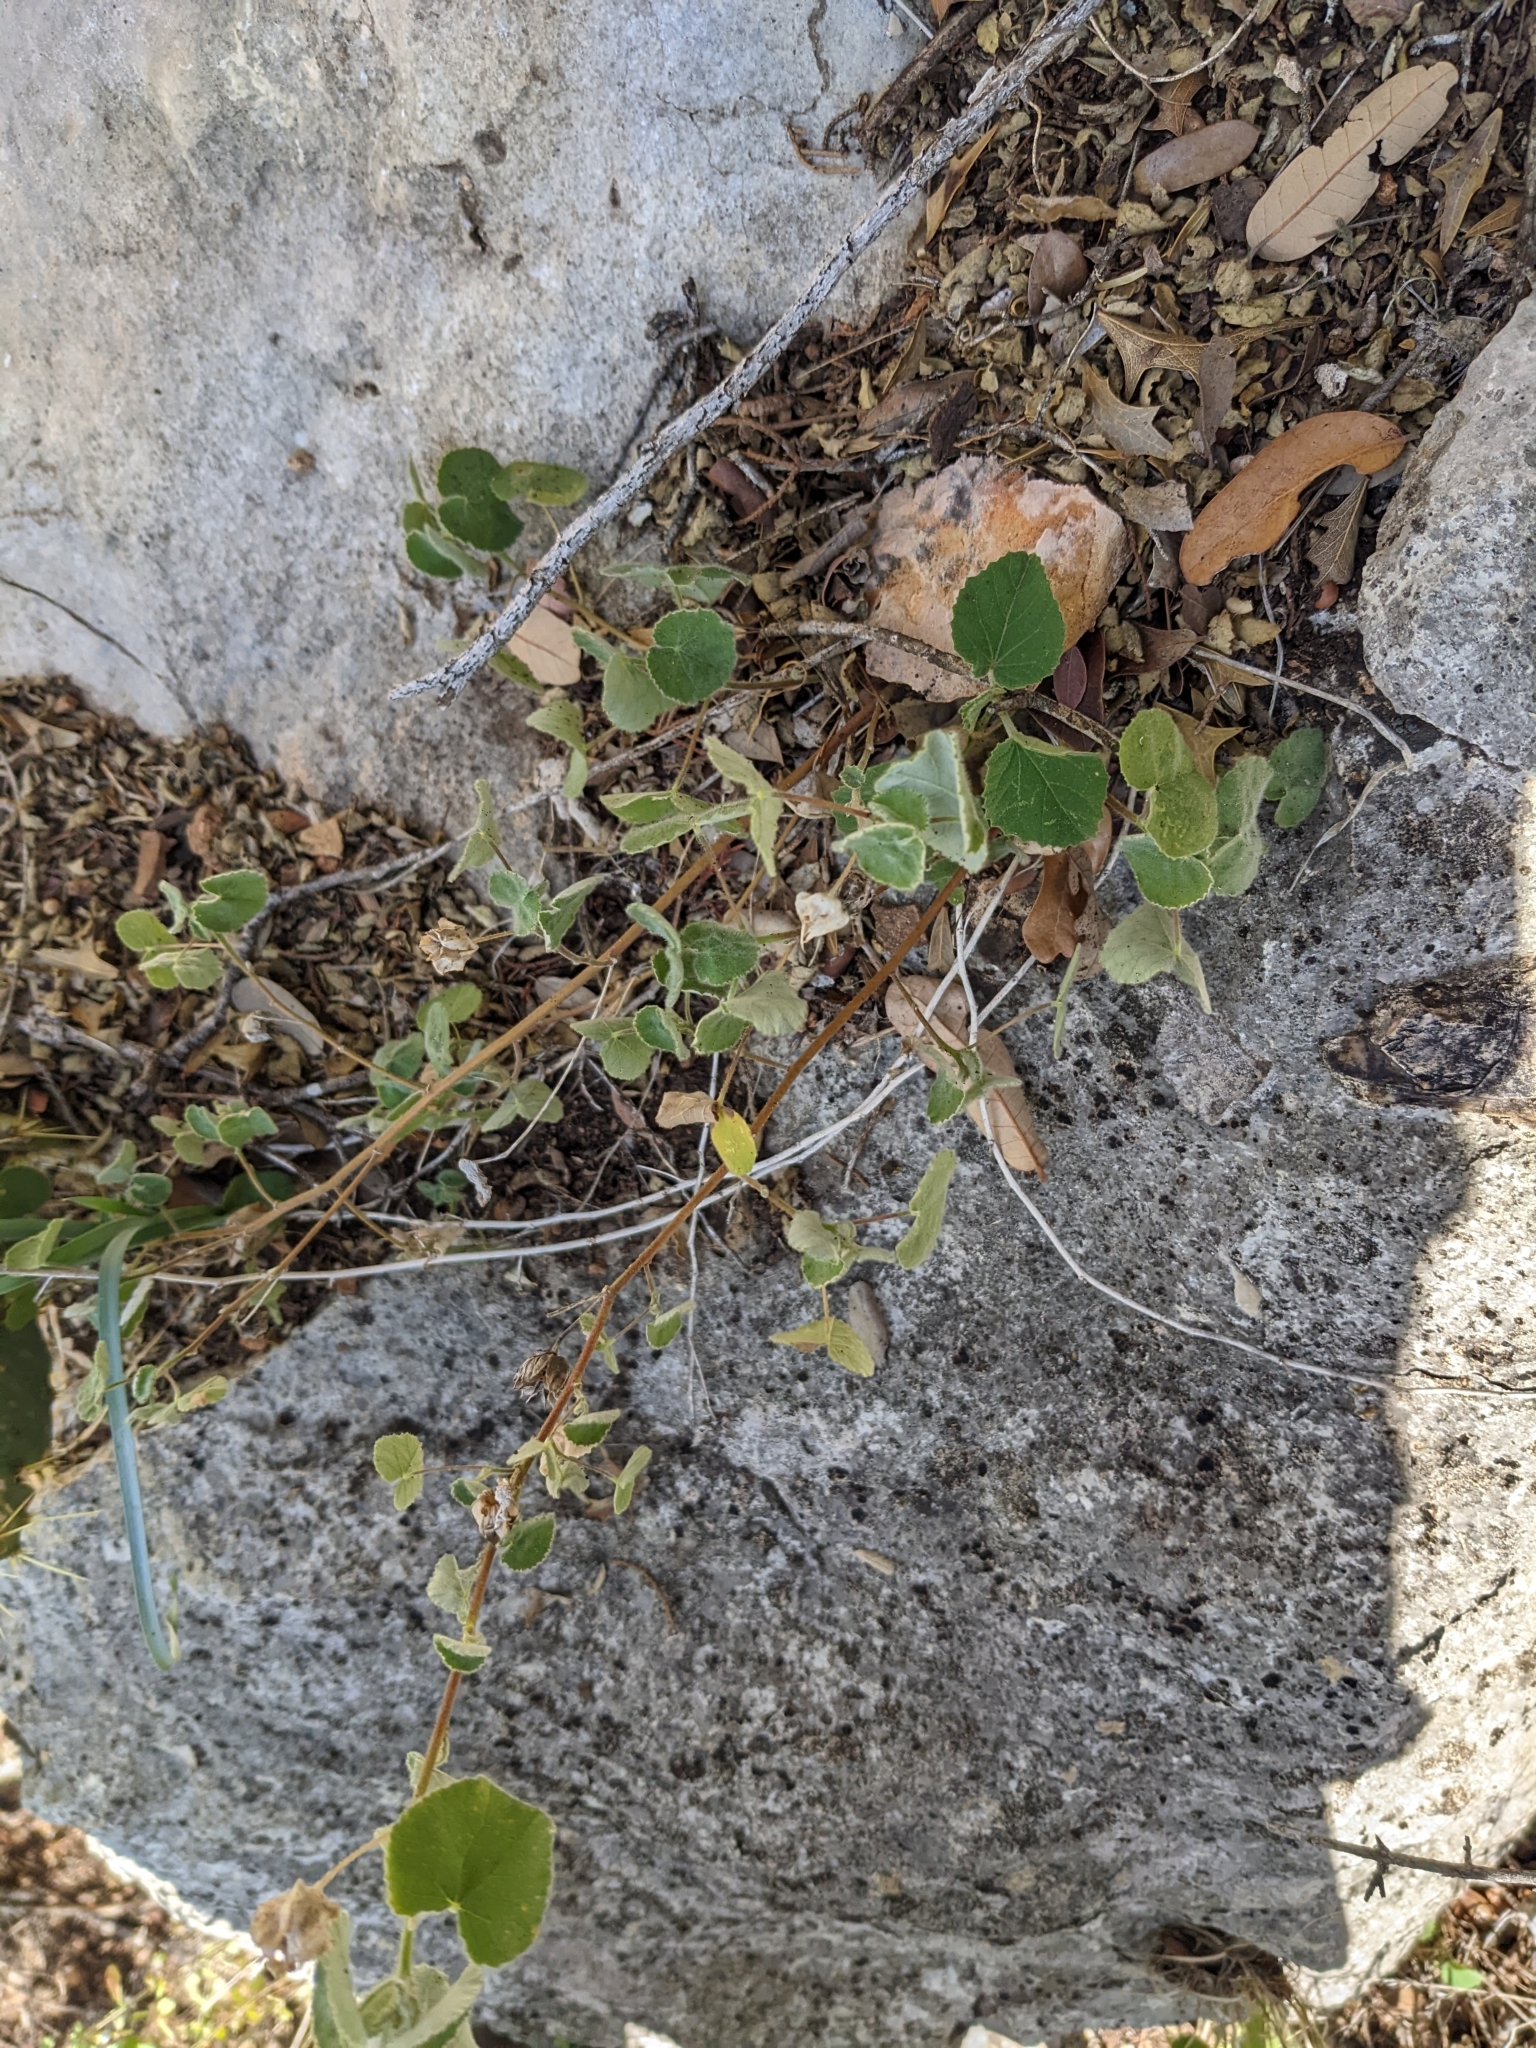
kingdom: Plantae
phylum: Tracheophyta
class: Magnoliopsida
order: Malvales
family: Malvaceae
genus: Abutilon
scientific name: Abutilon wrightii
